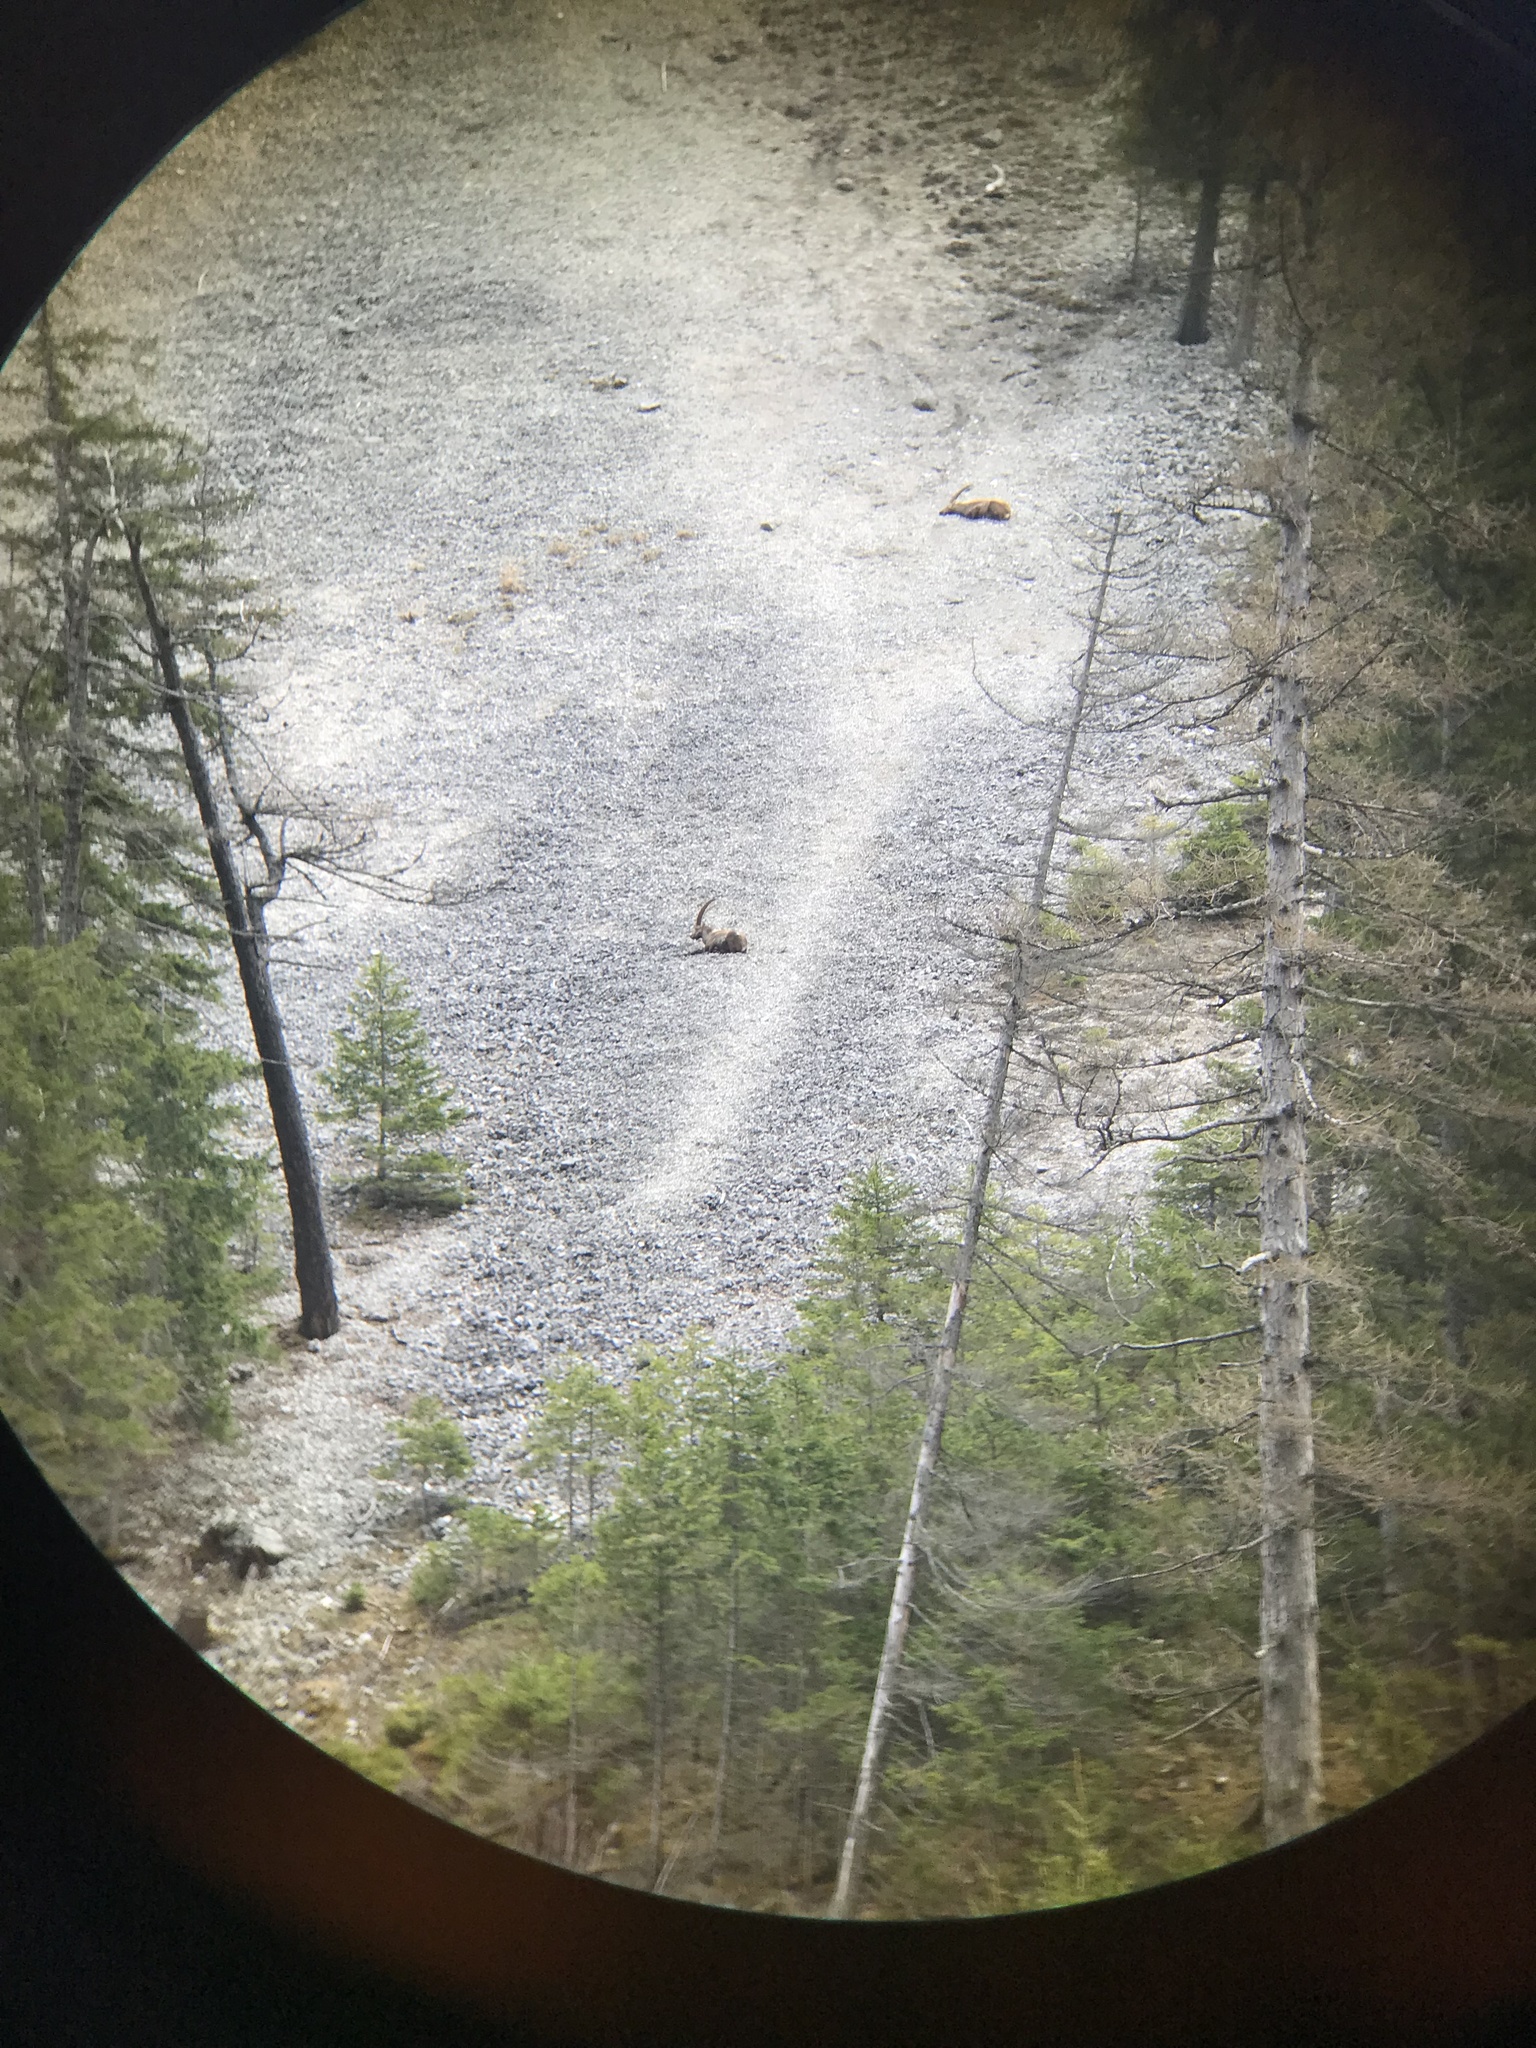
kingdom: Animalia
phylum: Chordata
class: Mammalia
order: Artiodactyla
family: Bovidae
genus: Capra
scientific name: Capra ibex
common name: Alpine ibex
